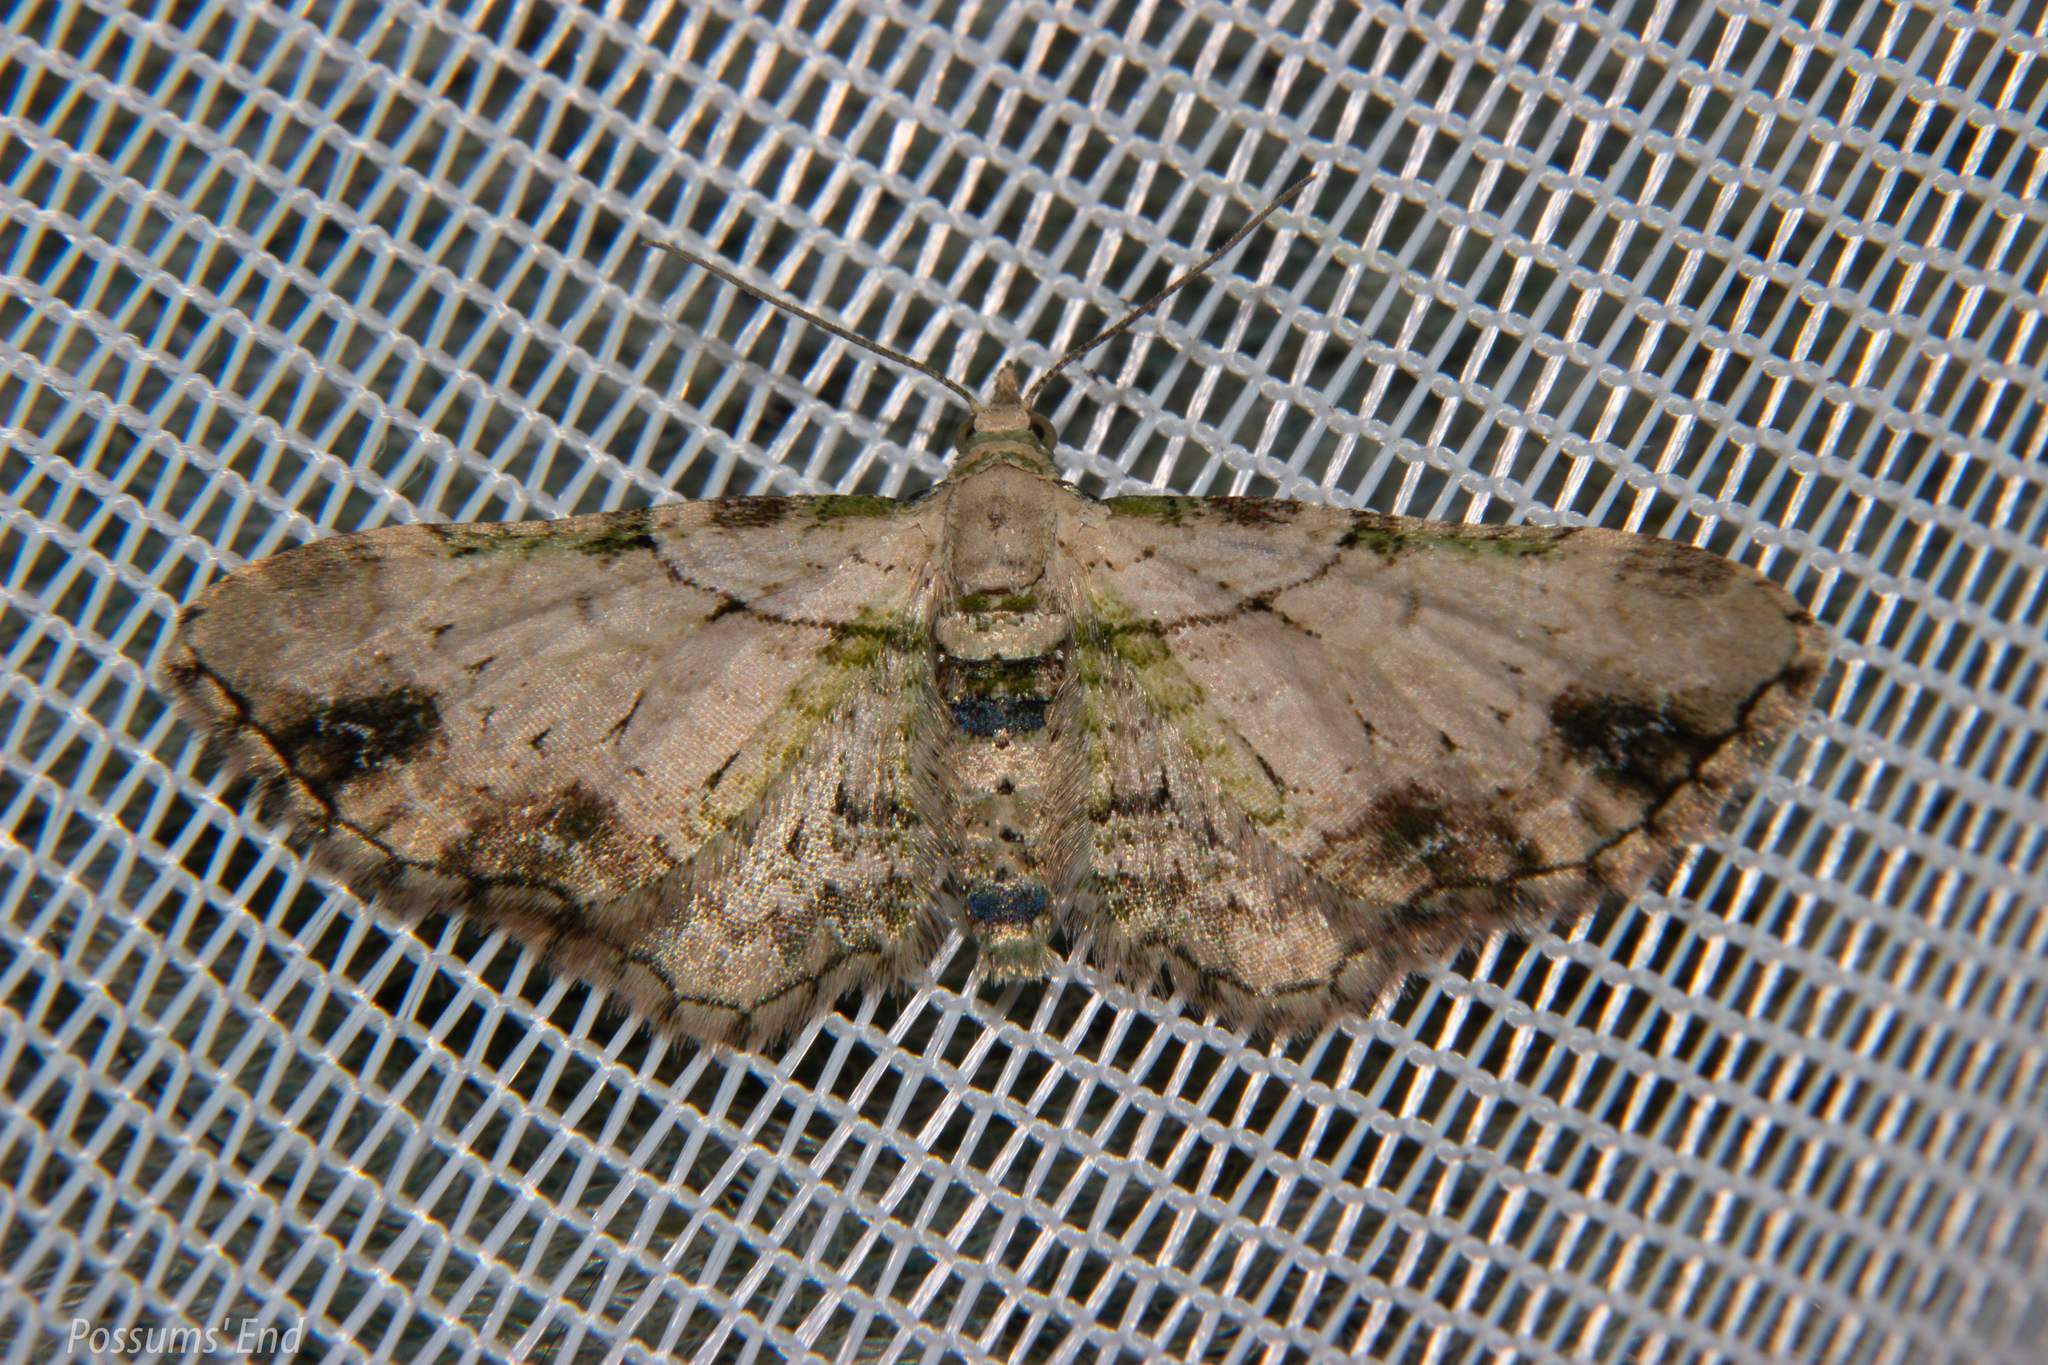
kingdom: Animalia
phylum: Arthropoda
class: Insecta
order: Lepidoptera
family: Geometridae
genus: Chloroclystis
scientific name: Chloroclystis
